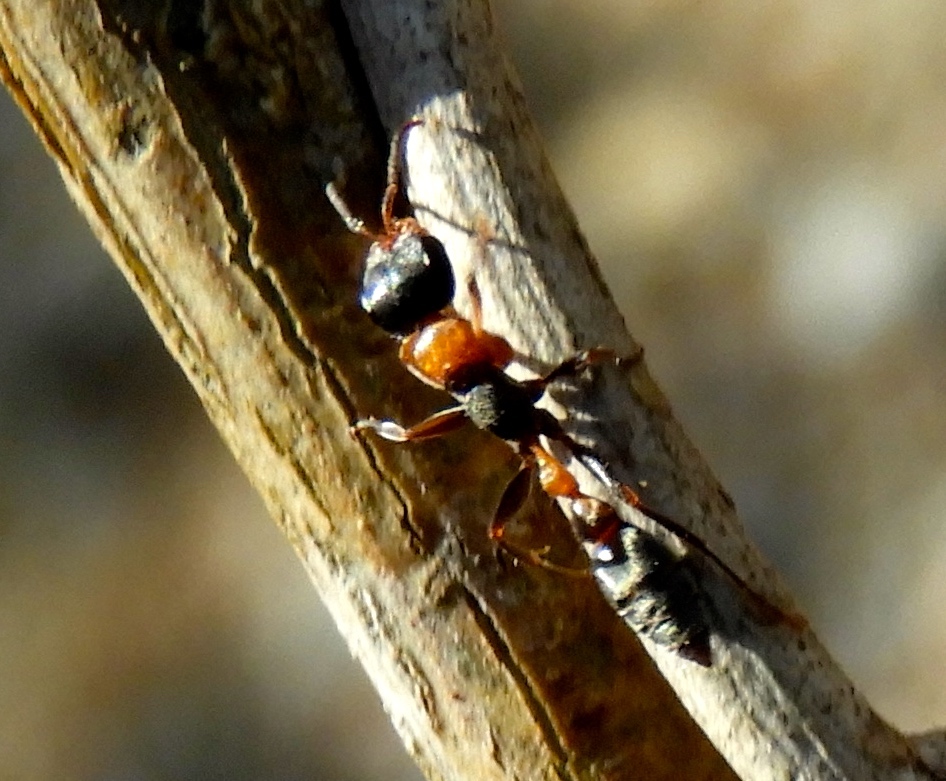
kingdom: Animalia
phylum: Arthropoda
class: Insecta
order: Hymenoptera
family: Formicidae
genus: Pseudomyrmex
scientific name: Pseudomyrmex gracilis
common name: Graceful twig ant
